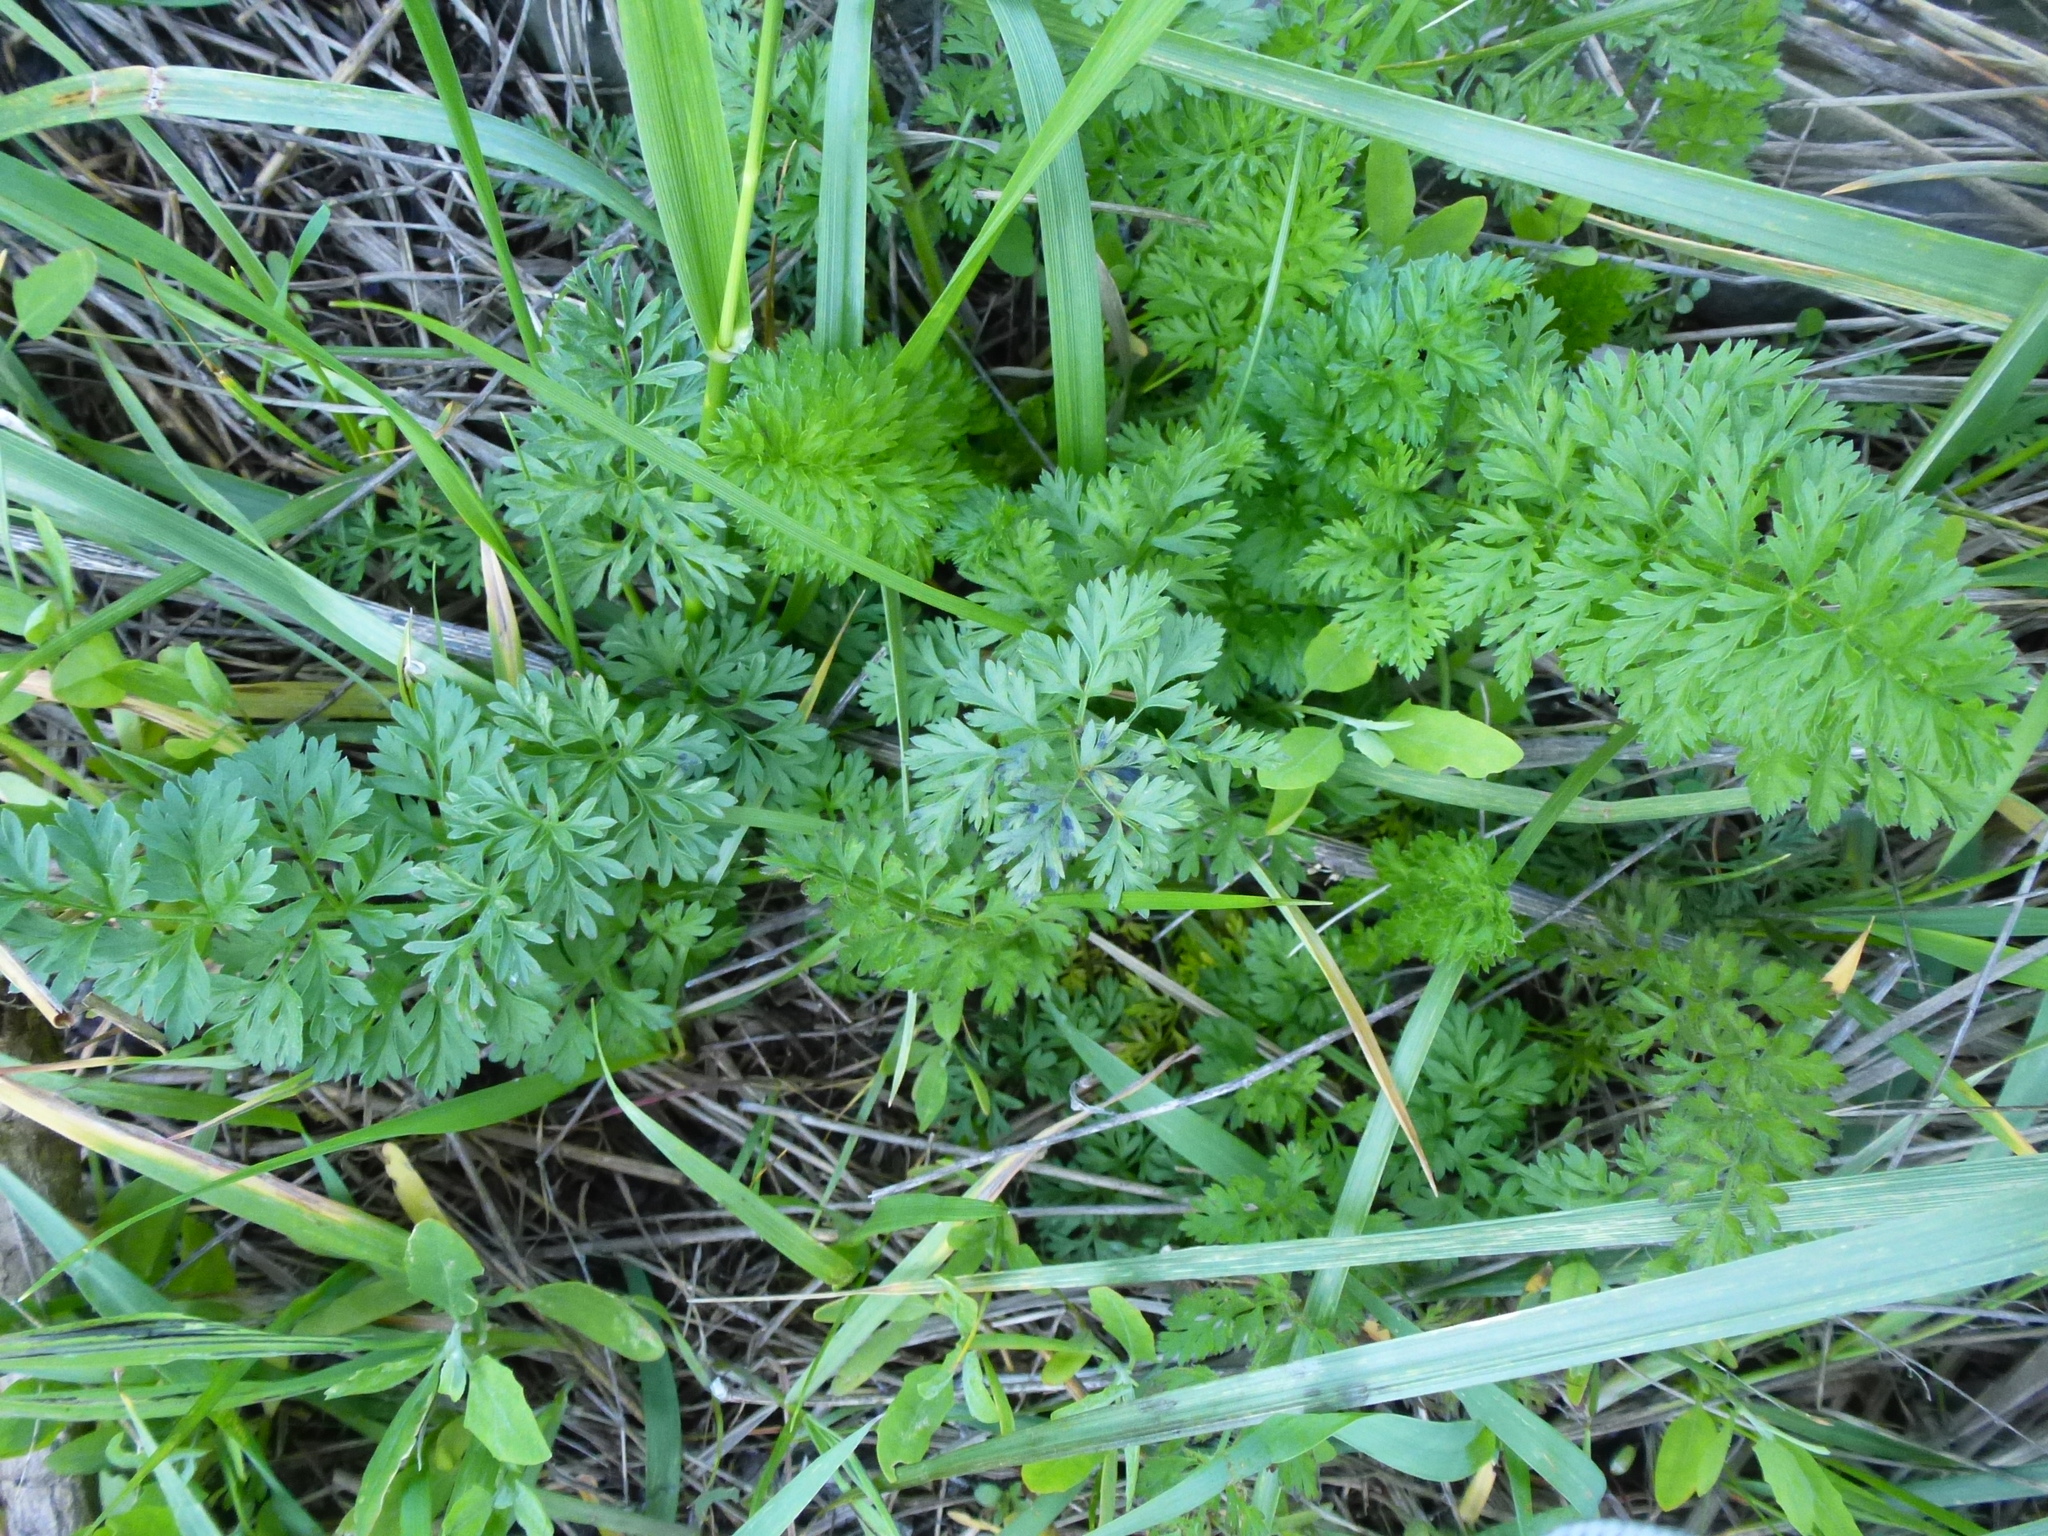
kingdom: Plantae
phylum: Tracheophyta
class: Magnoliopsida
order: Apiales
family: Apiaceae
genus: Daucus
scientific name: Daucus carota
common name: Wild carrot
